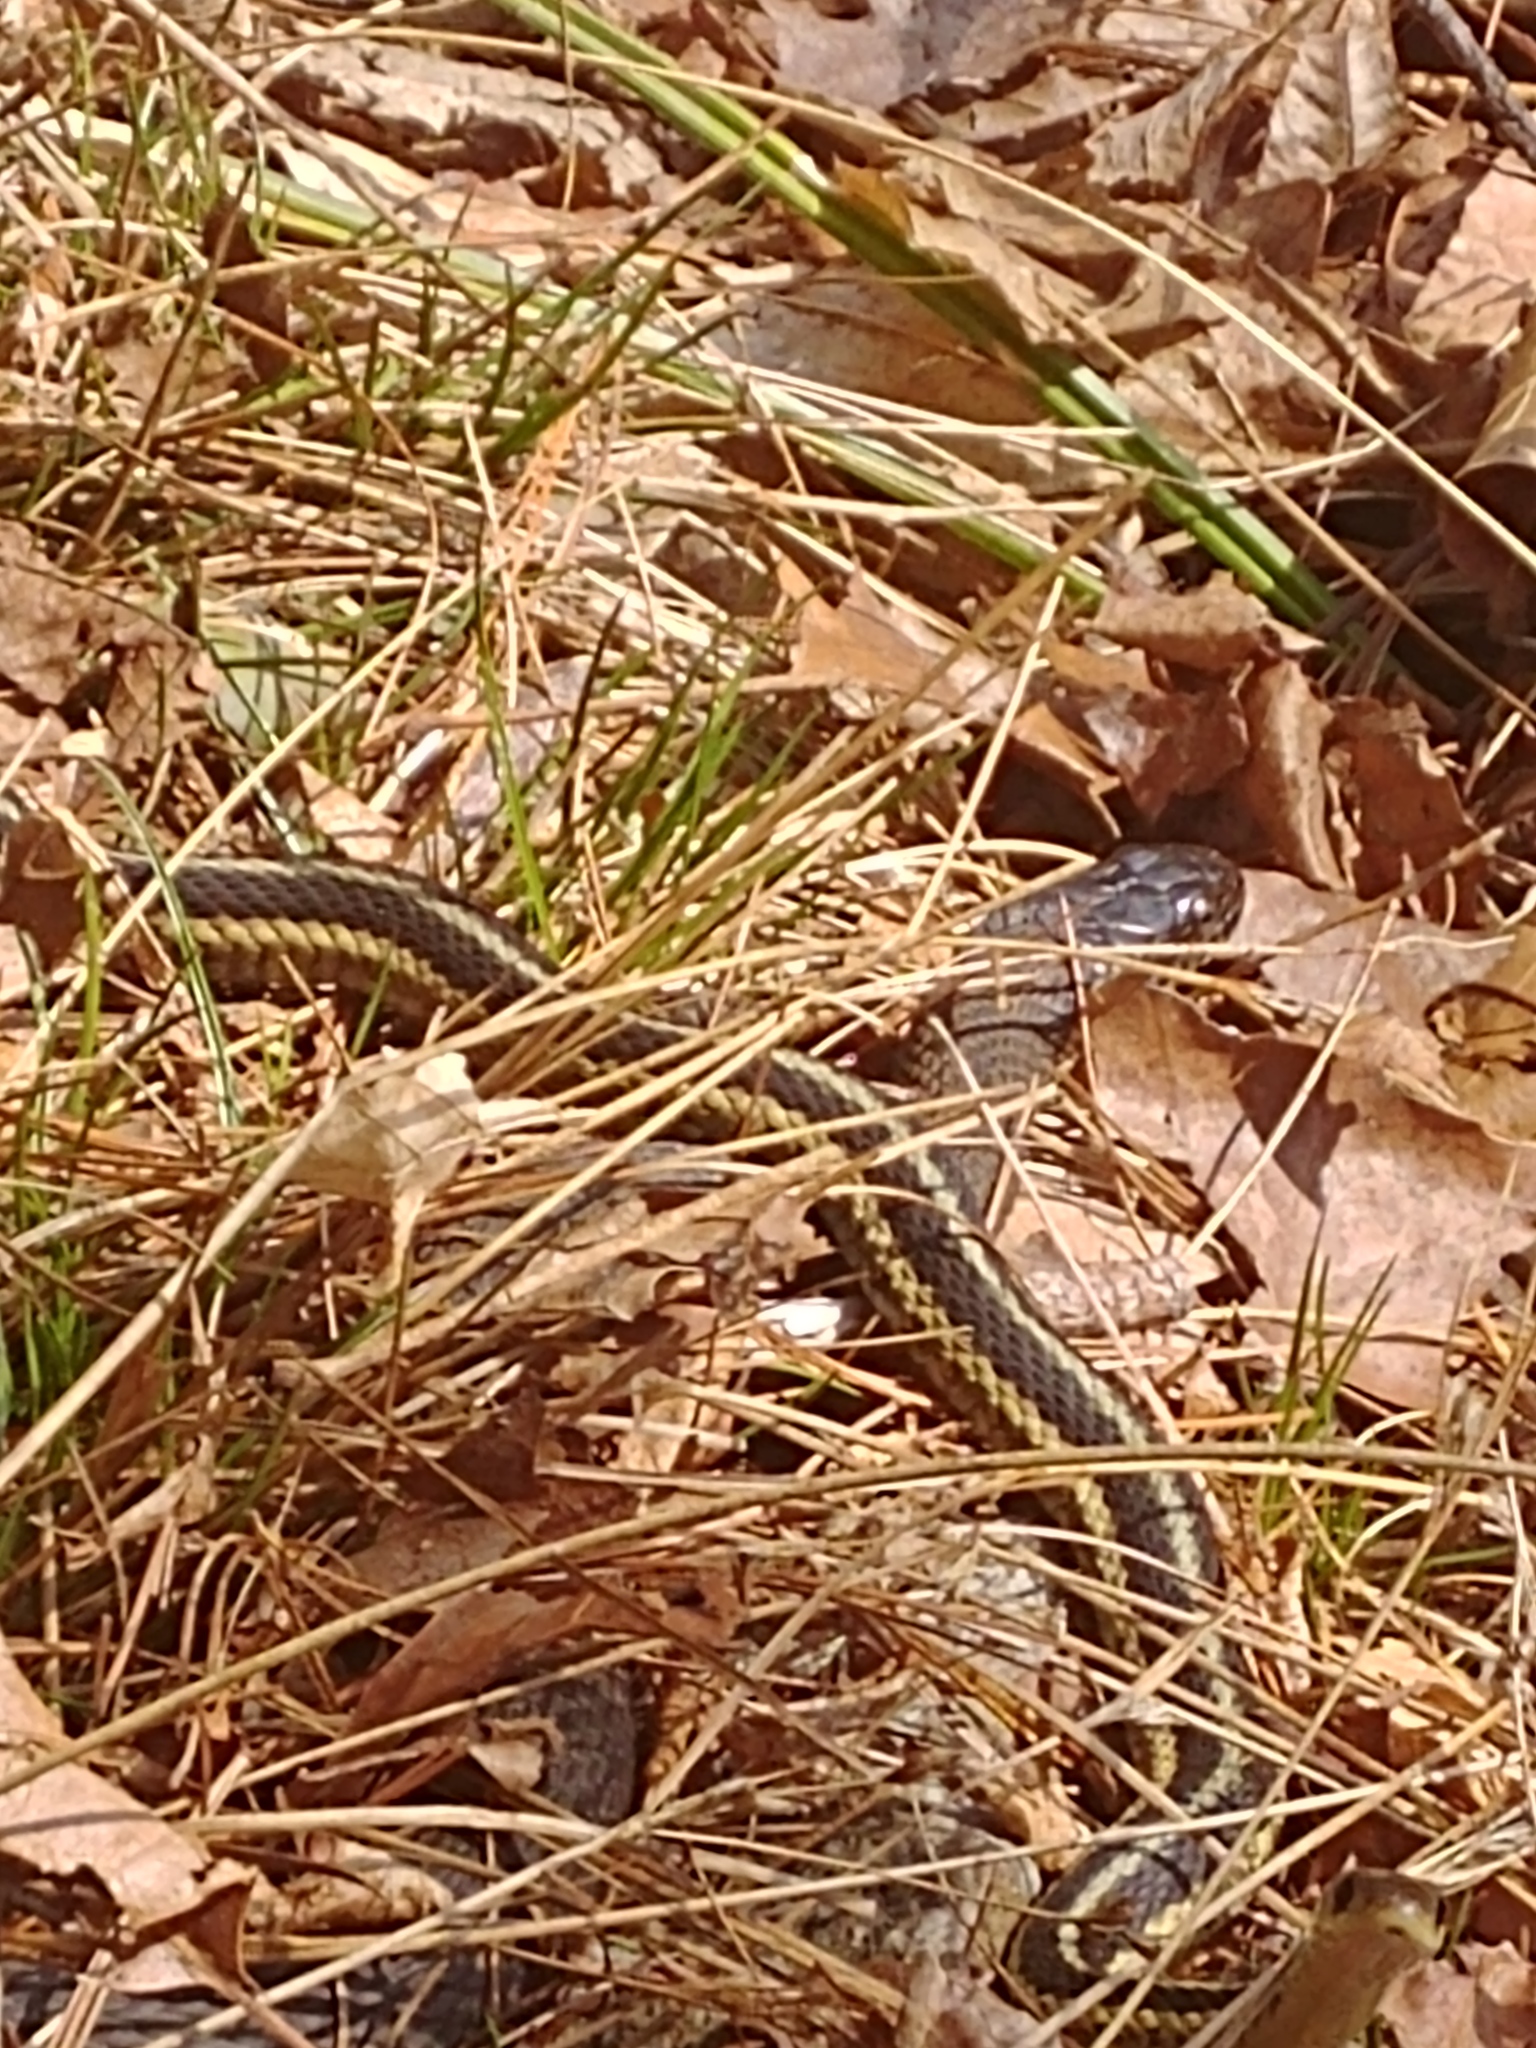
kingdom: Animalia
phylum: Chordata
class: Squamata
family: Colubridae
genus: Thamnophis
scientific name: Thamnophis sirtalis
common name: Common garter snake
